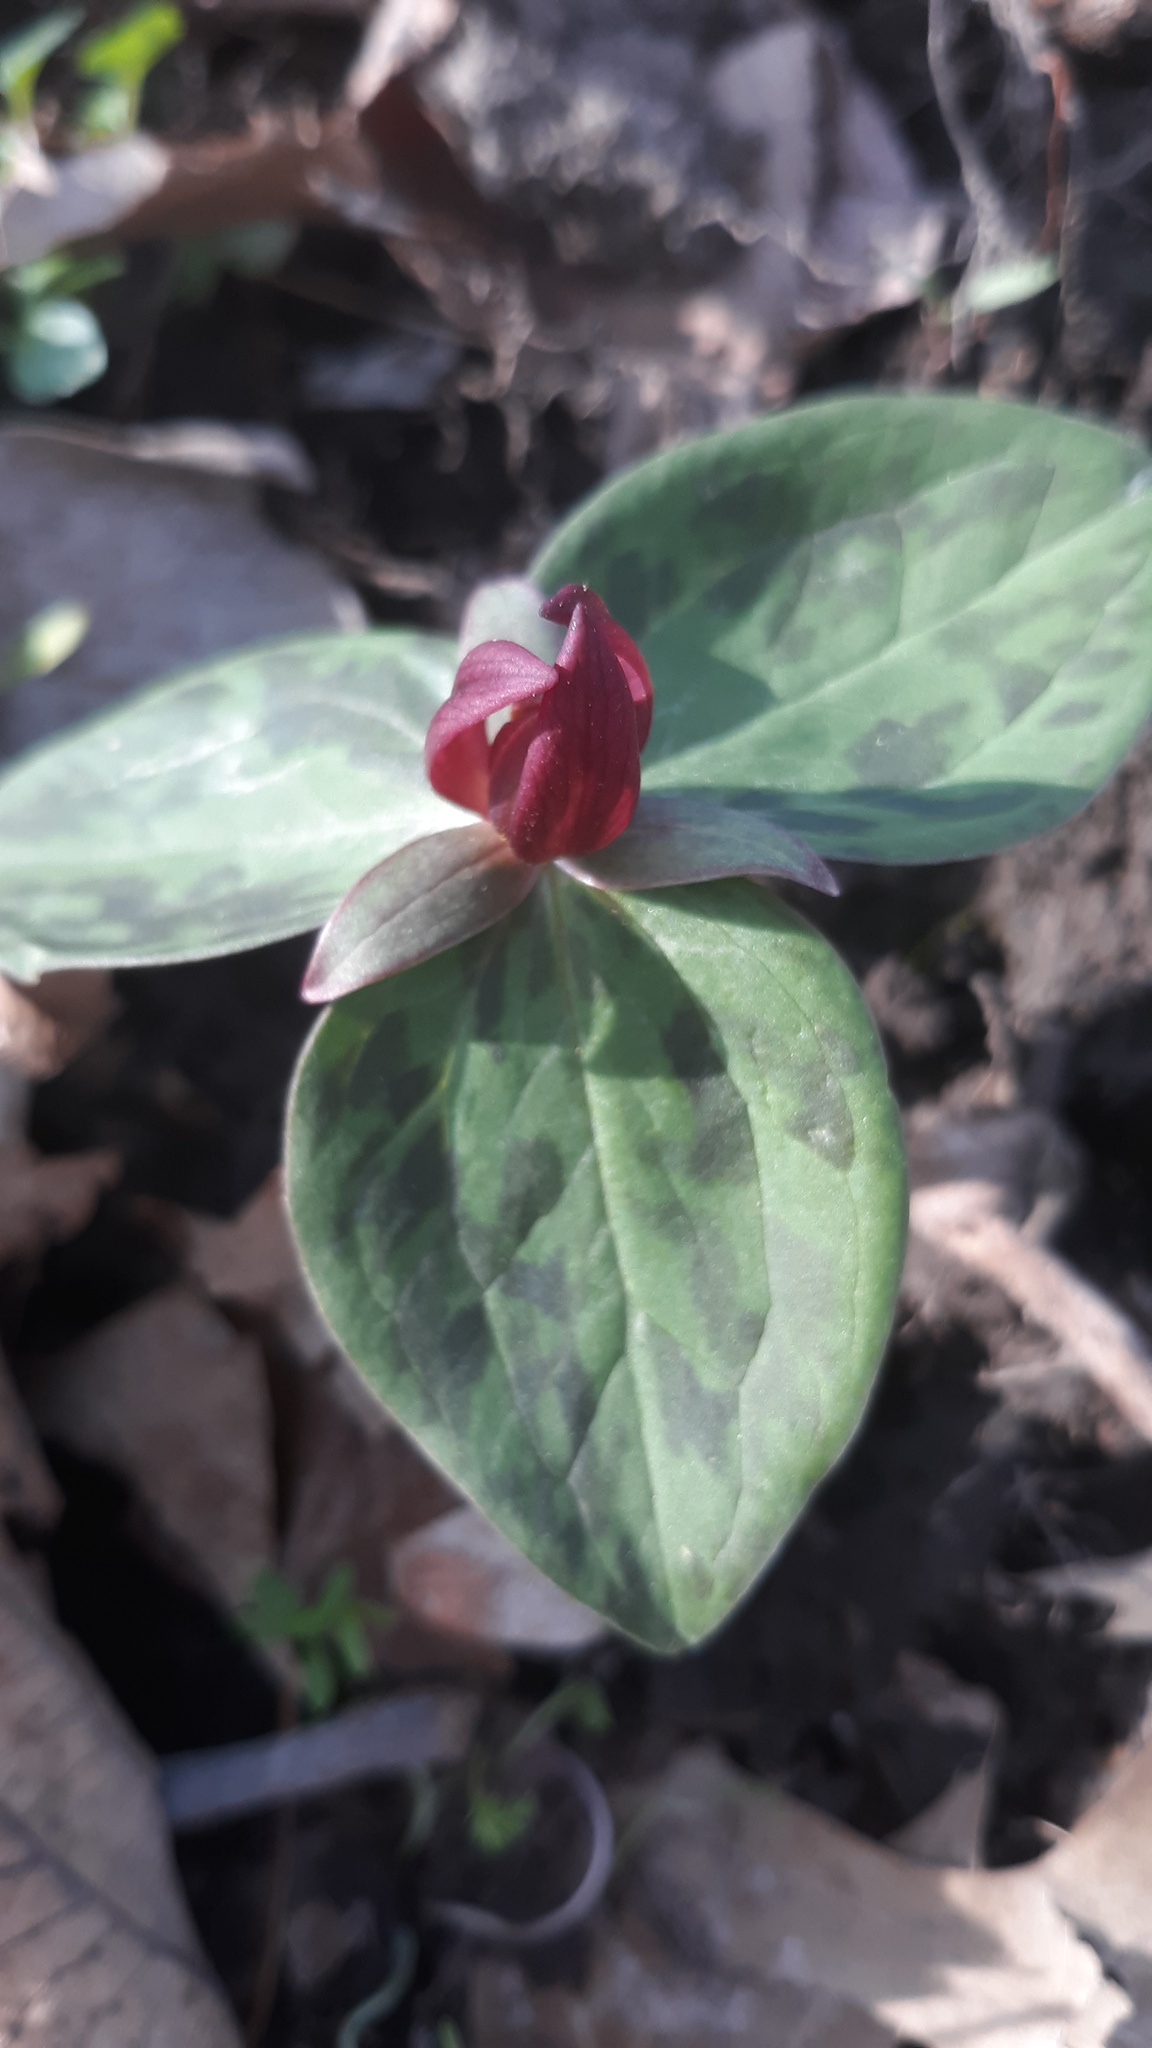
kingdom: Plantae
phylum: Tracheophyta
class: Liliopsida
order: Liliales
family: Melanthiaceae
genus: Trillium
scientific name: Trillium sessile
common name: Sessile trillium
